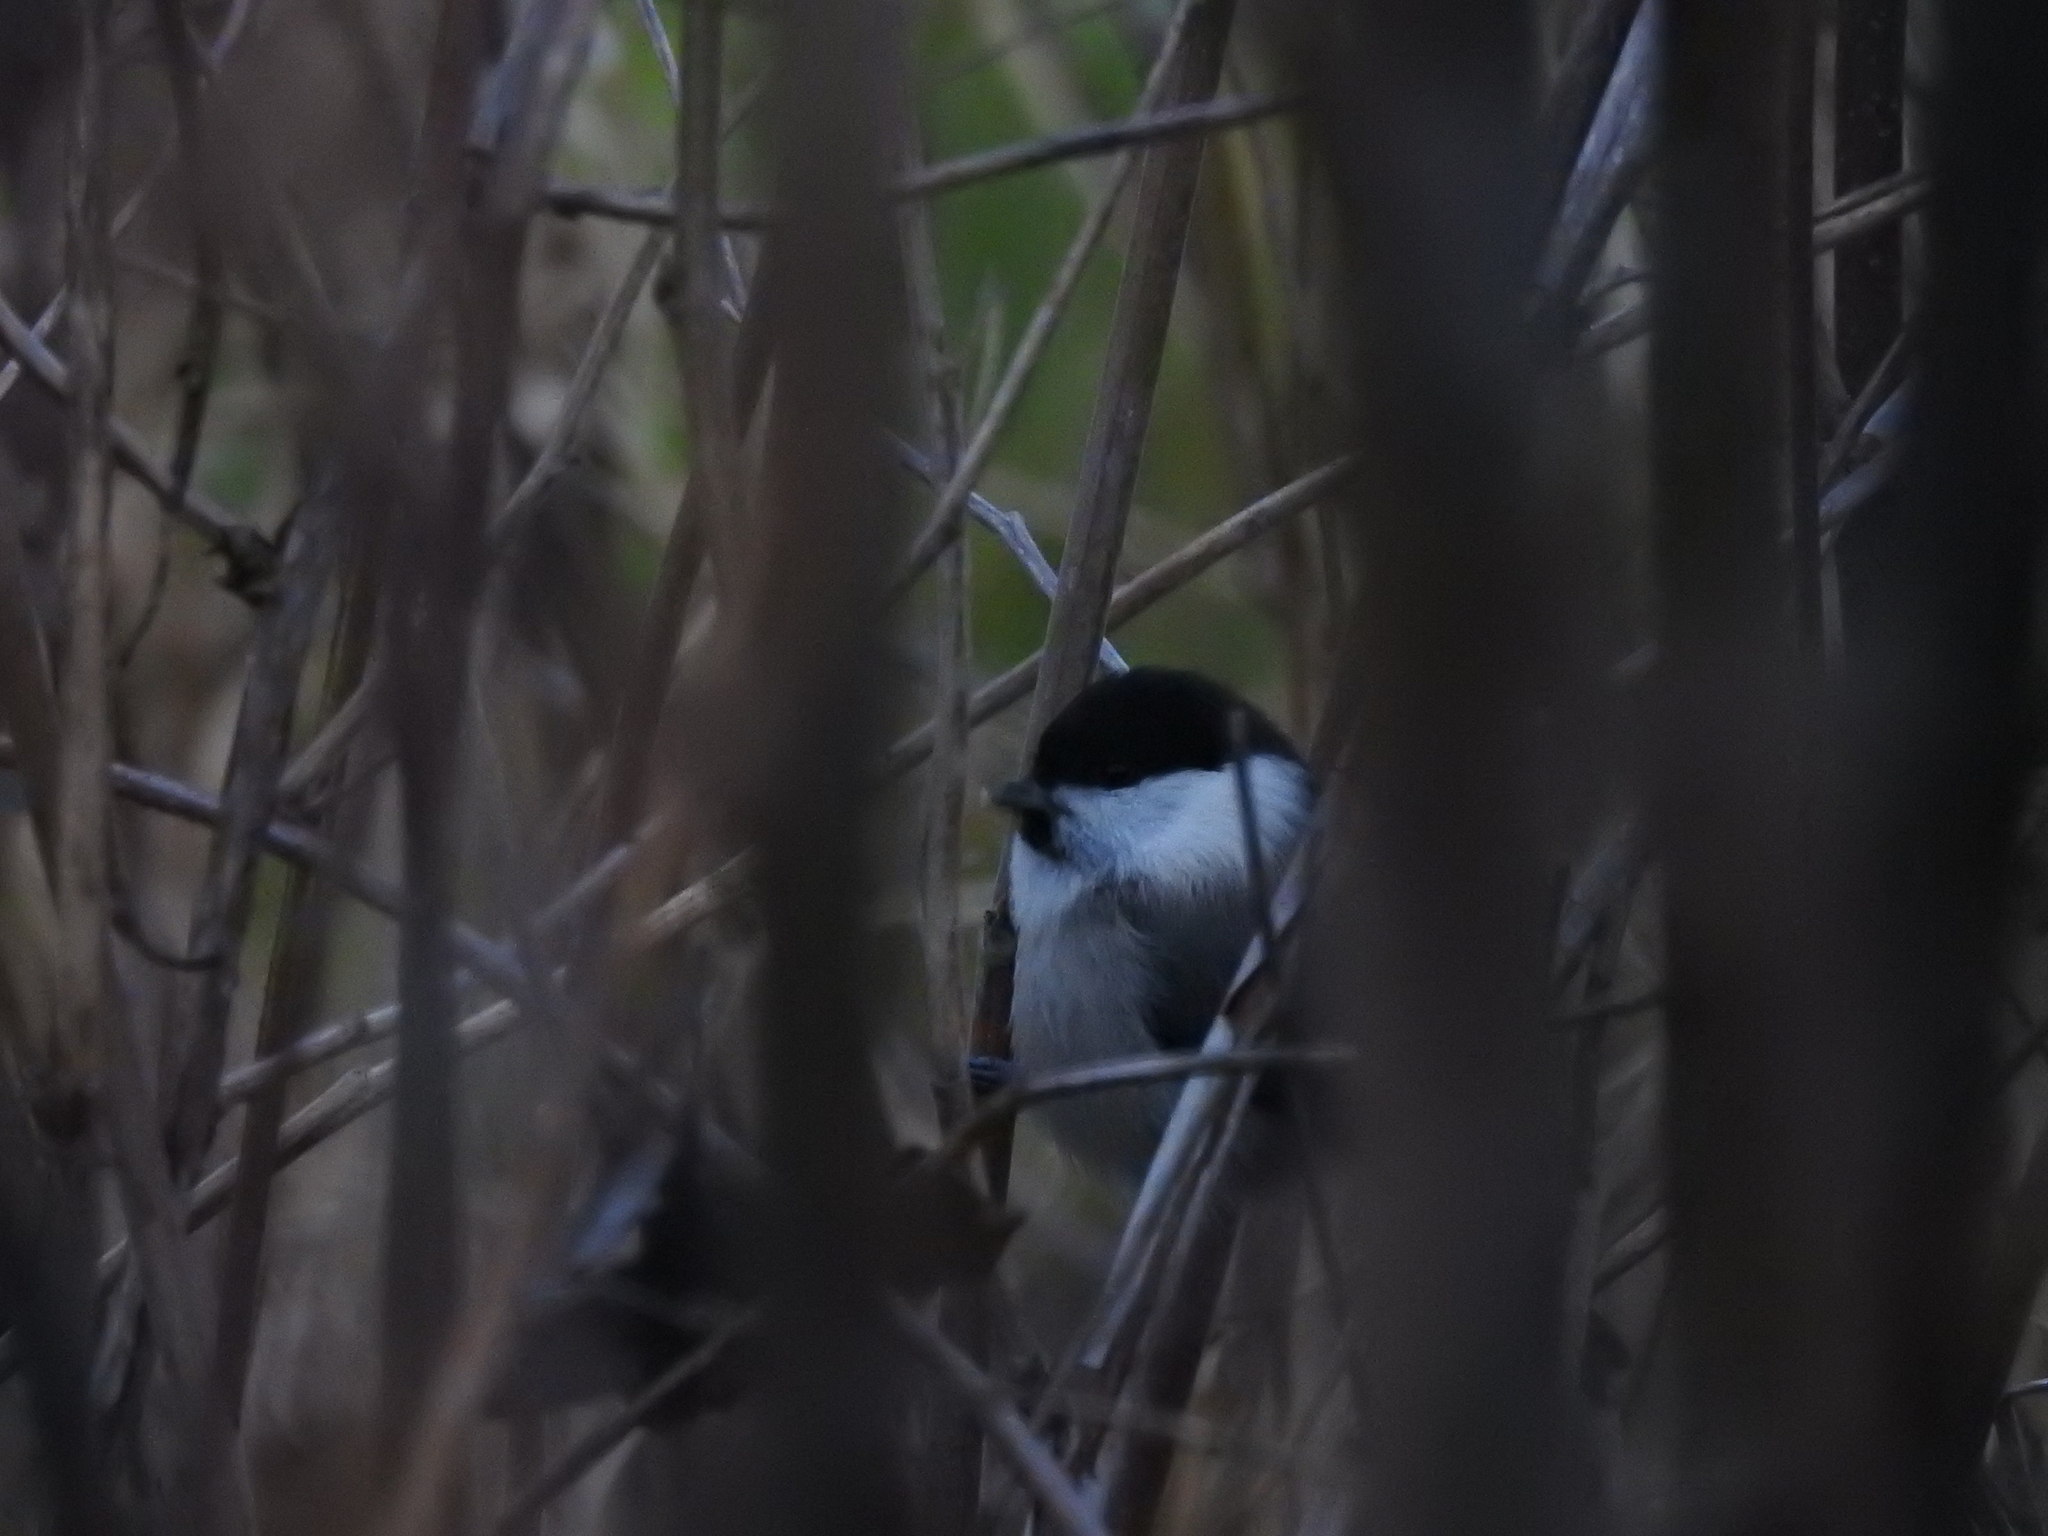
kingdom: Animalia
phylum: Chordata
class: Aves
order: Passeriformes
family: Paridae
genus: Poecile
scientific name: Poecile montanus
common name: Willow tit
